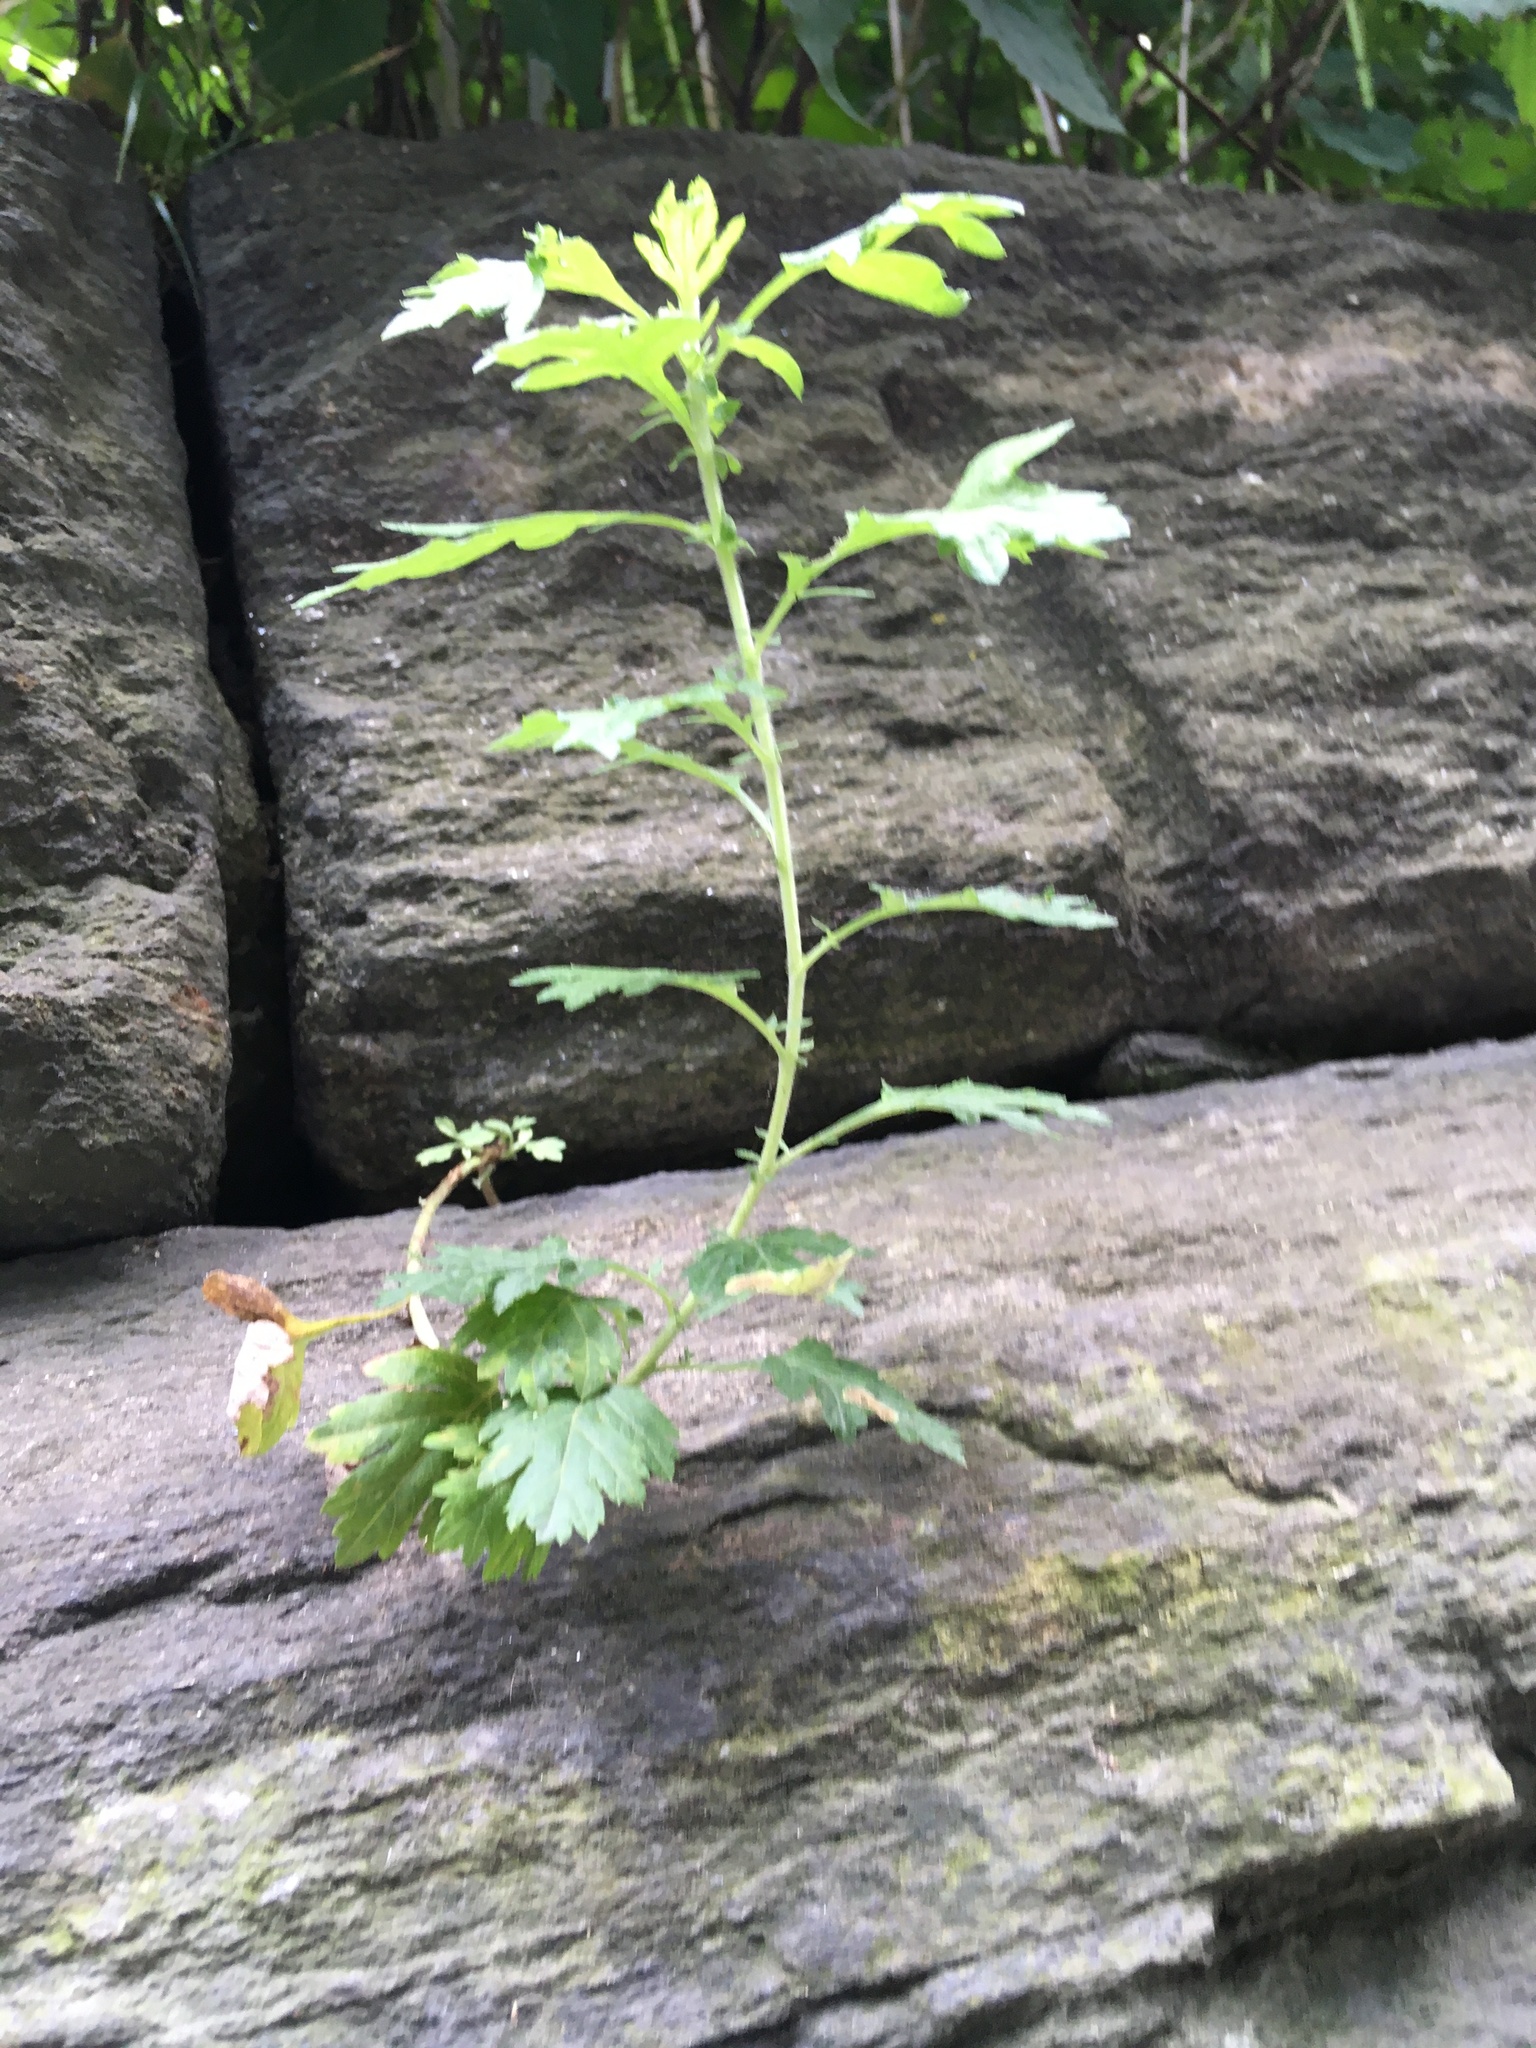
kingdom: Plantae
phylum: Tracheophyta
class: Magnoliopsida
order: Asterales
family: Asteraceae
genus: Artemisia
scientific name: Artemisia vulgaris
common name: Mugwort
